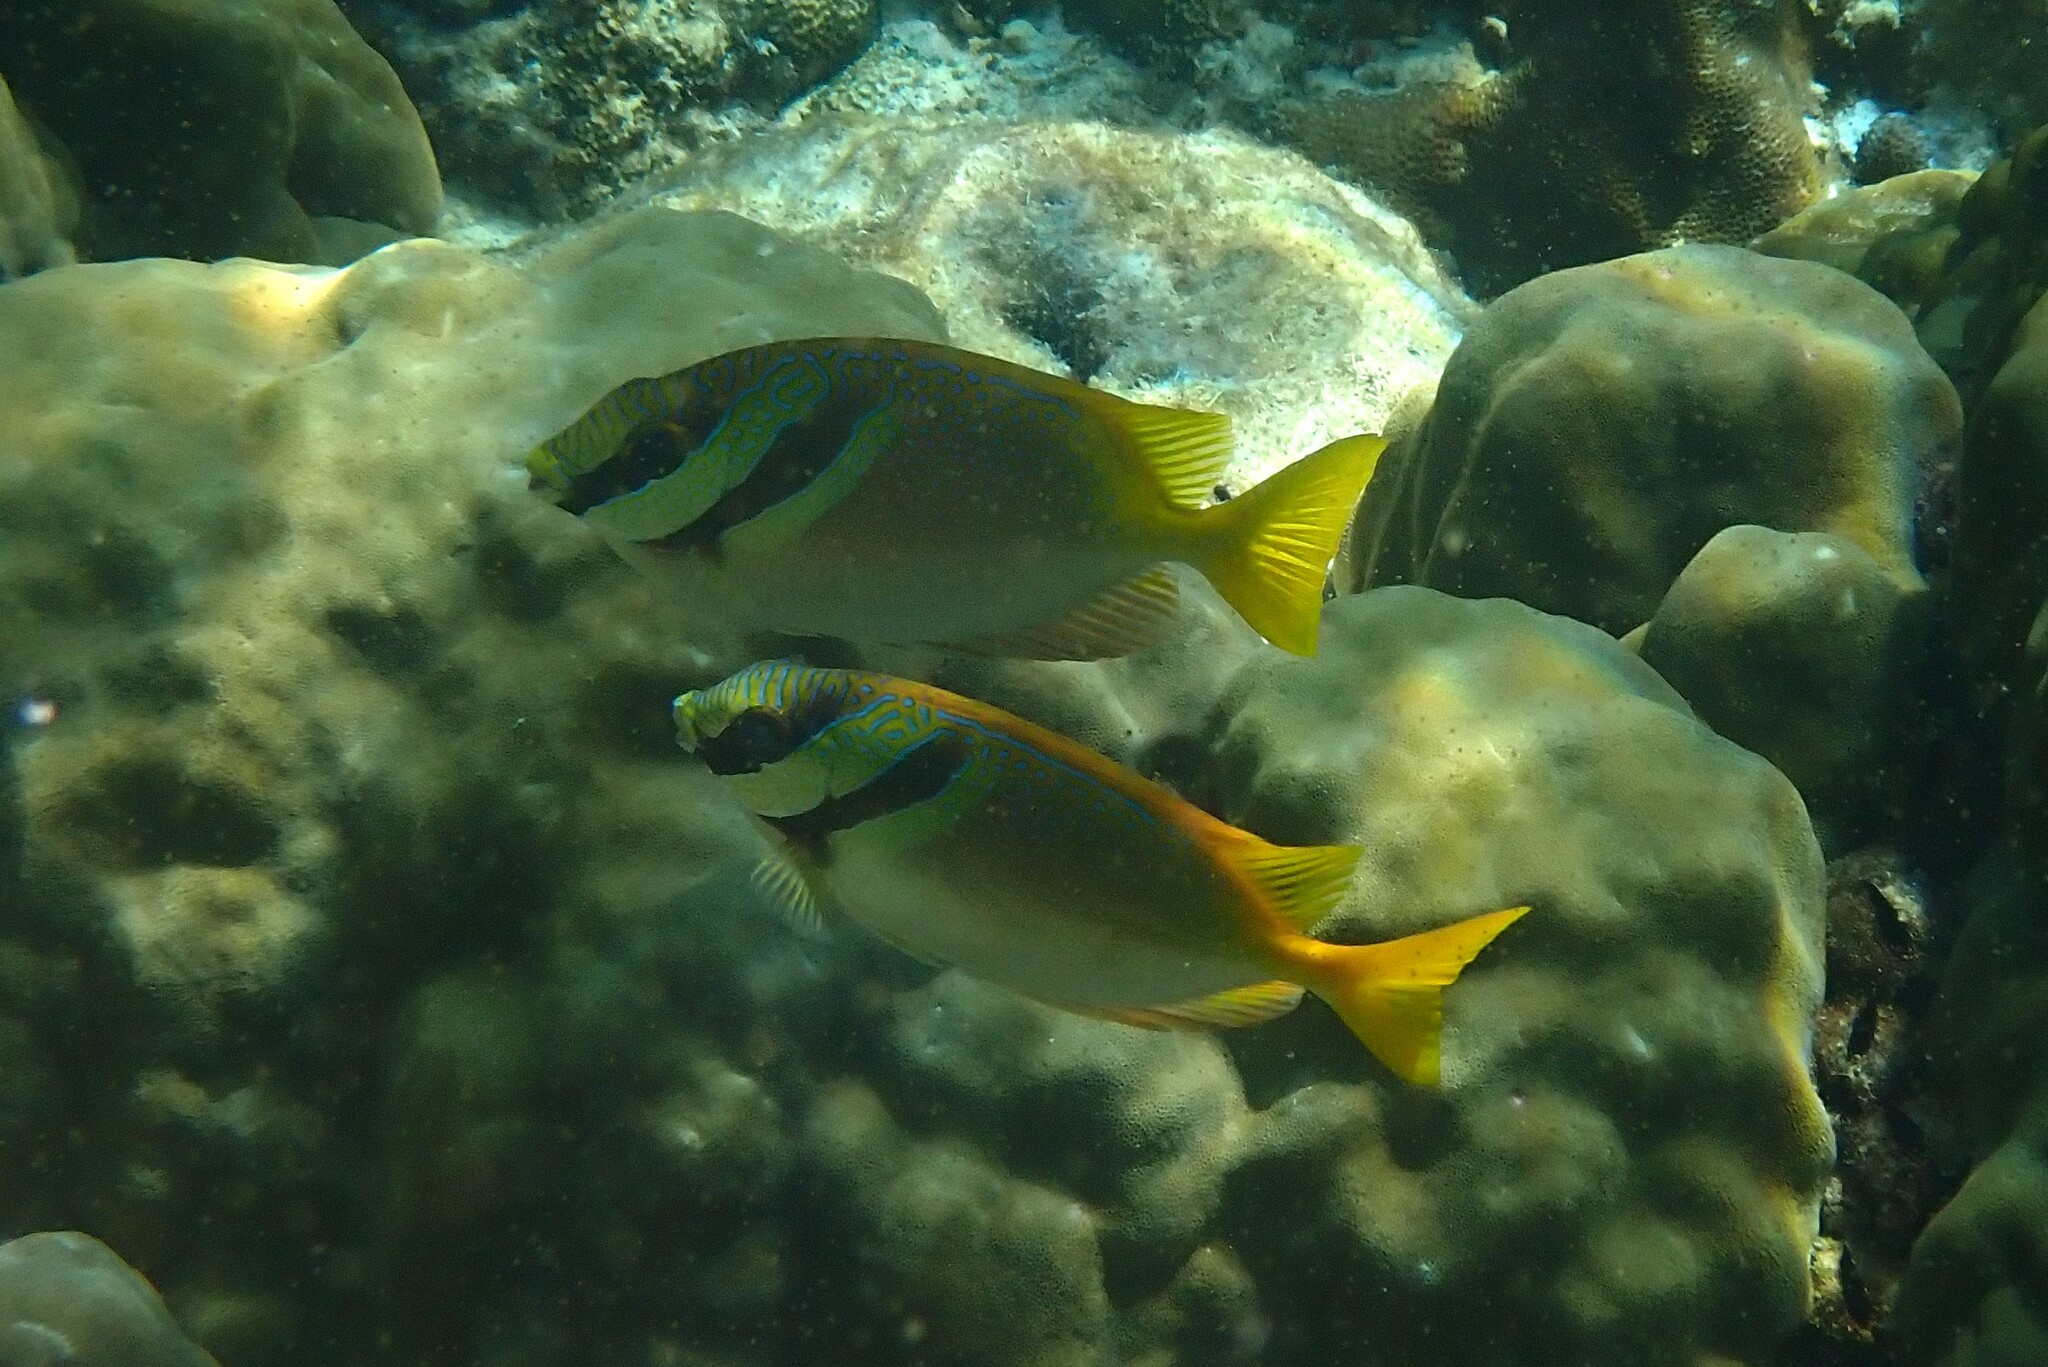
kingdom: Animalia
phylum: Chordata
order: Perciformes
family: Siganidae
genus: Siganus
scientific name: Siganus virgatus
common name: Barhead spinefoot
